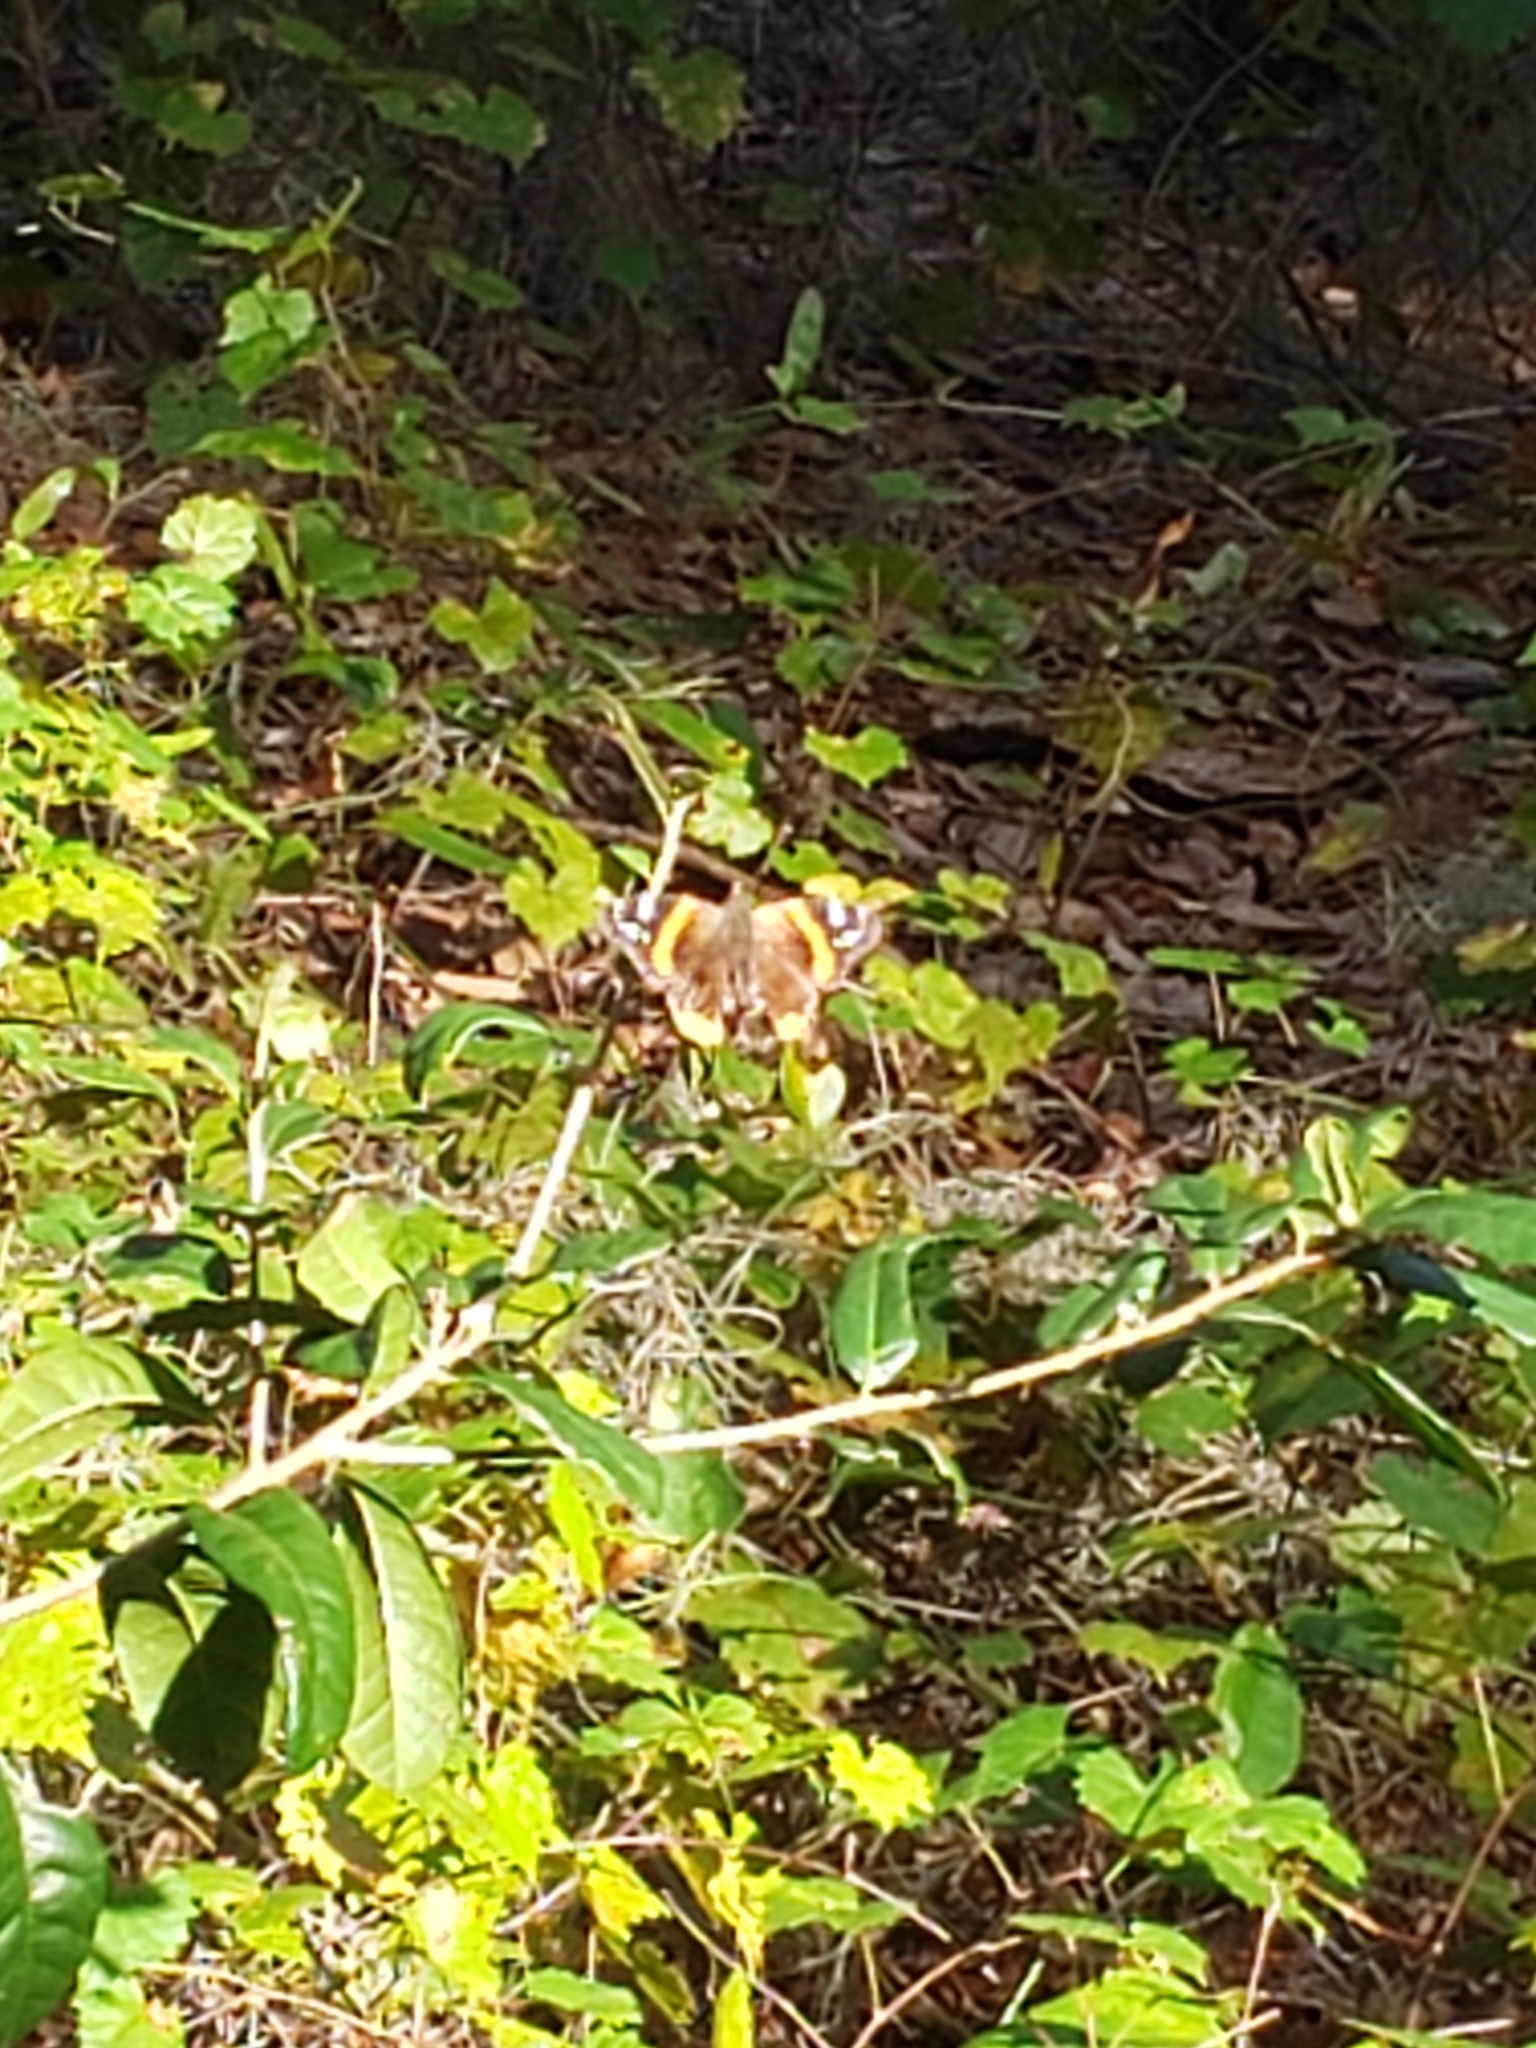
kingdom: Animalia
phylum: Arthropoda
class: Insecta
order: Lepidoptera
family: Nymphalidae
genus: Vanessa
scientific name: Vanessa atalanta
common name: Red admiral
